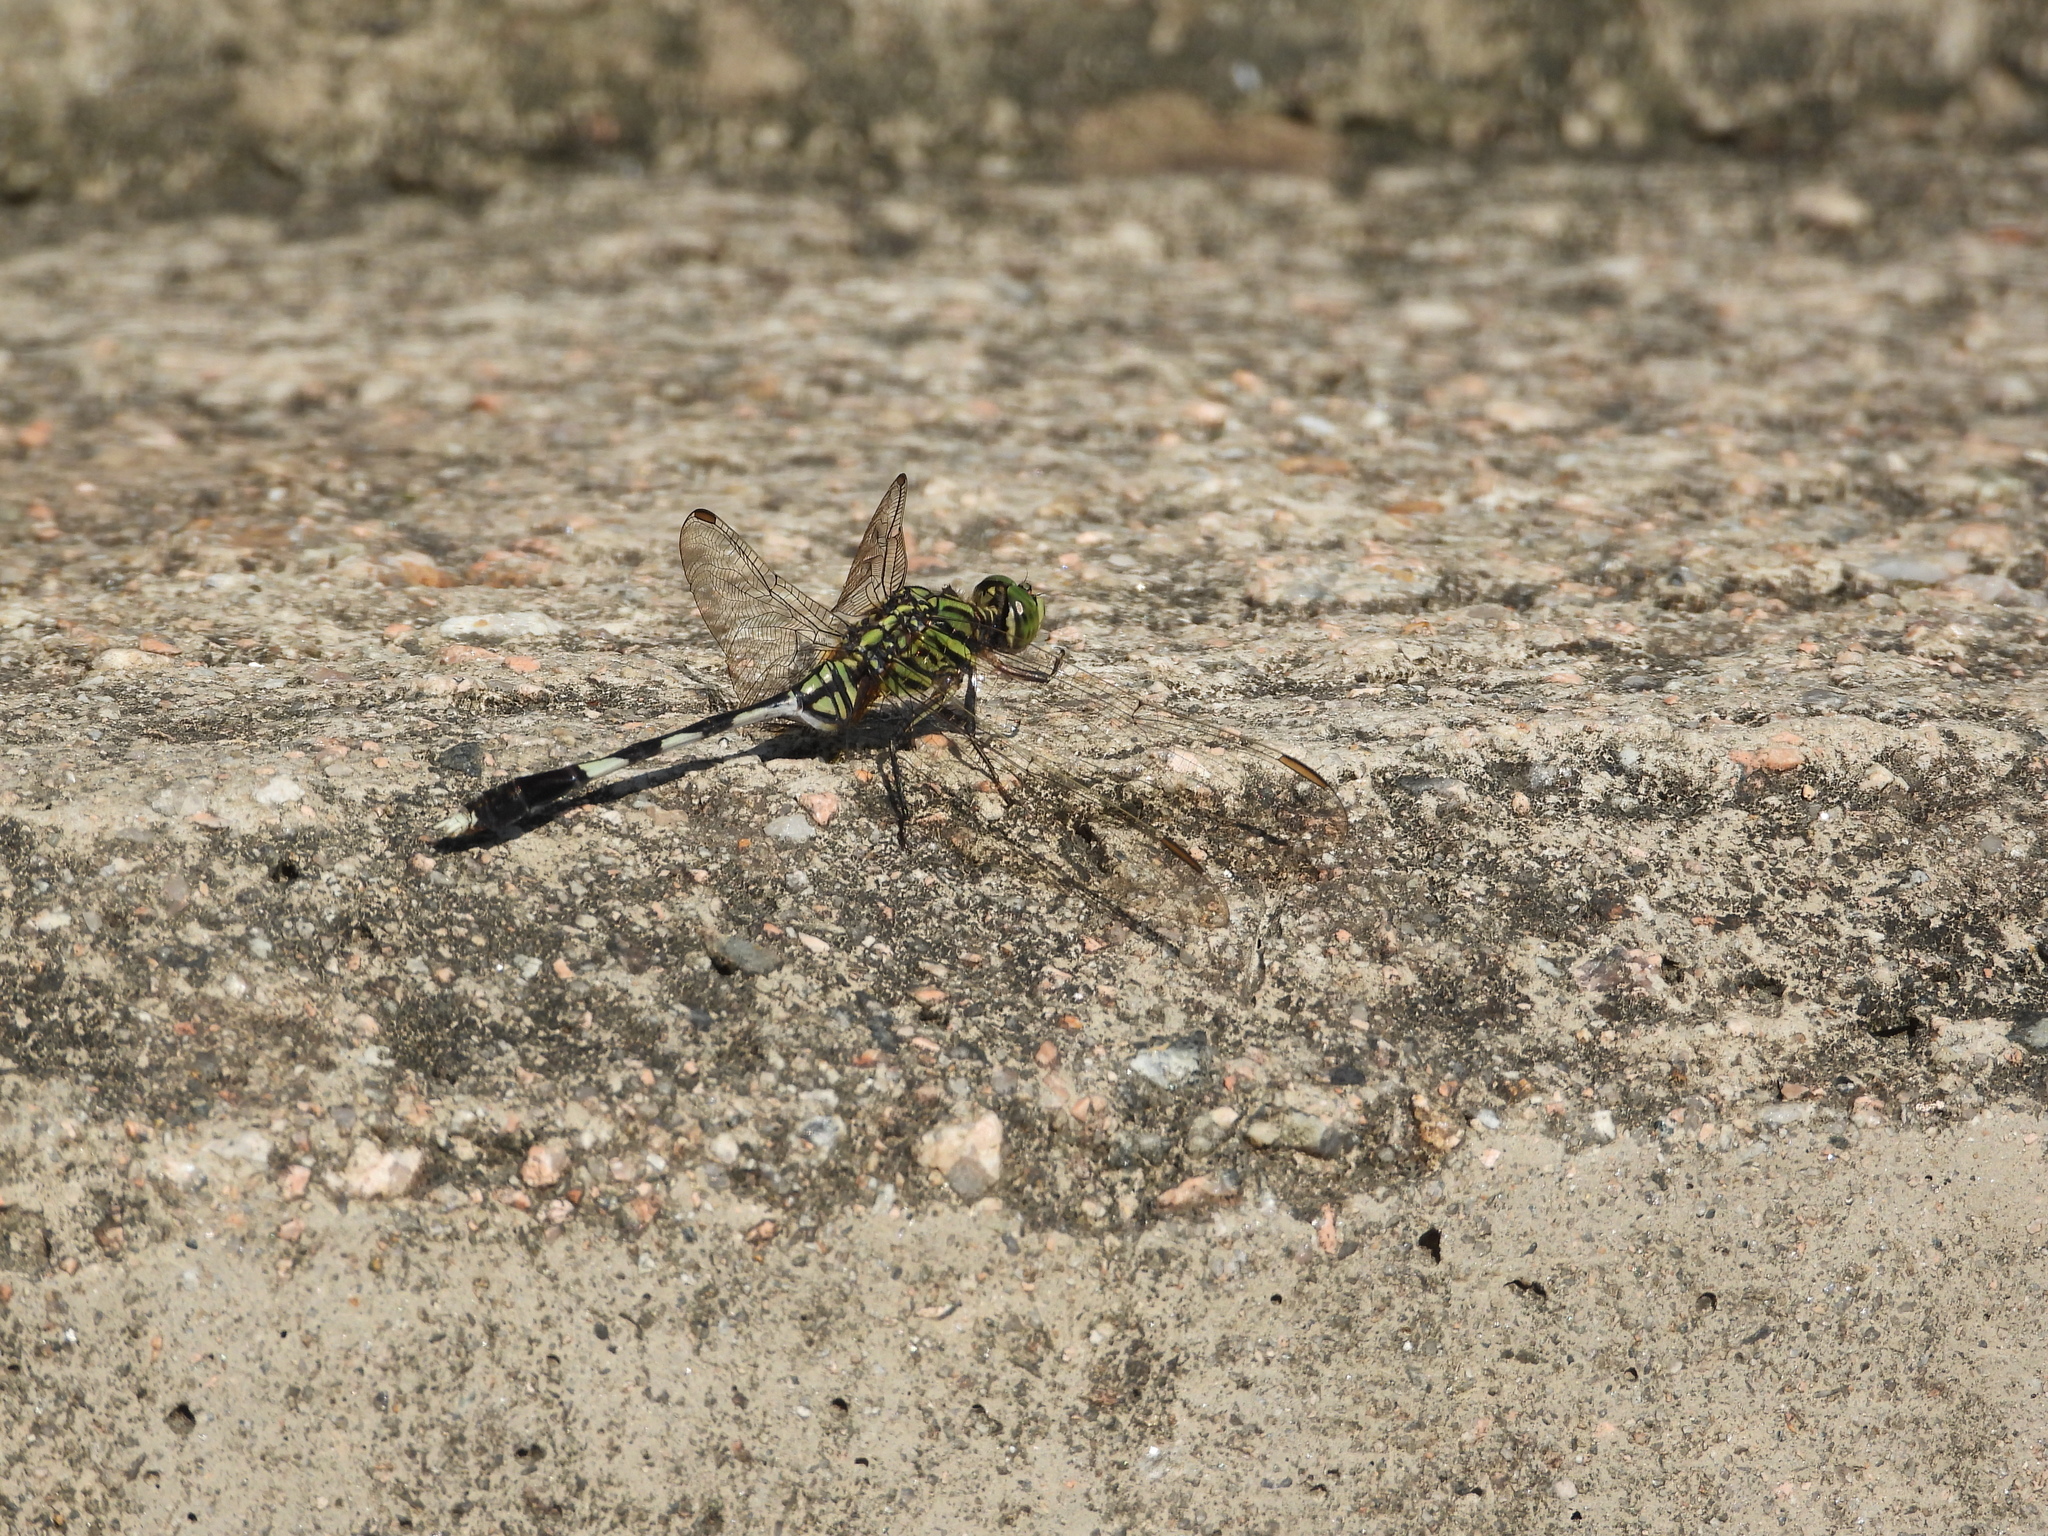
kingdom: Animalia
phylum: Arthropoda
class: Insecta
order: Odonata
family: Libellulidae
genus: Orthetrum
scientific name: Orthetrum sabina
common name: Slender skimmer
